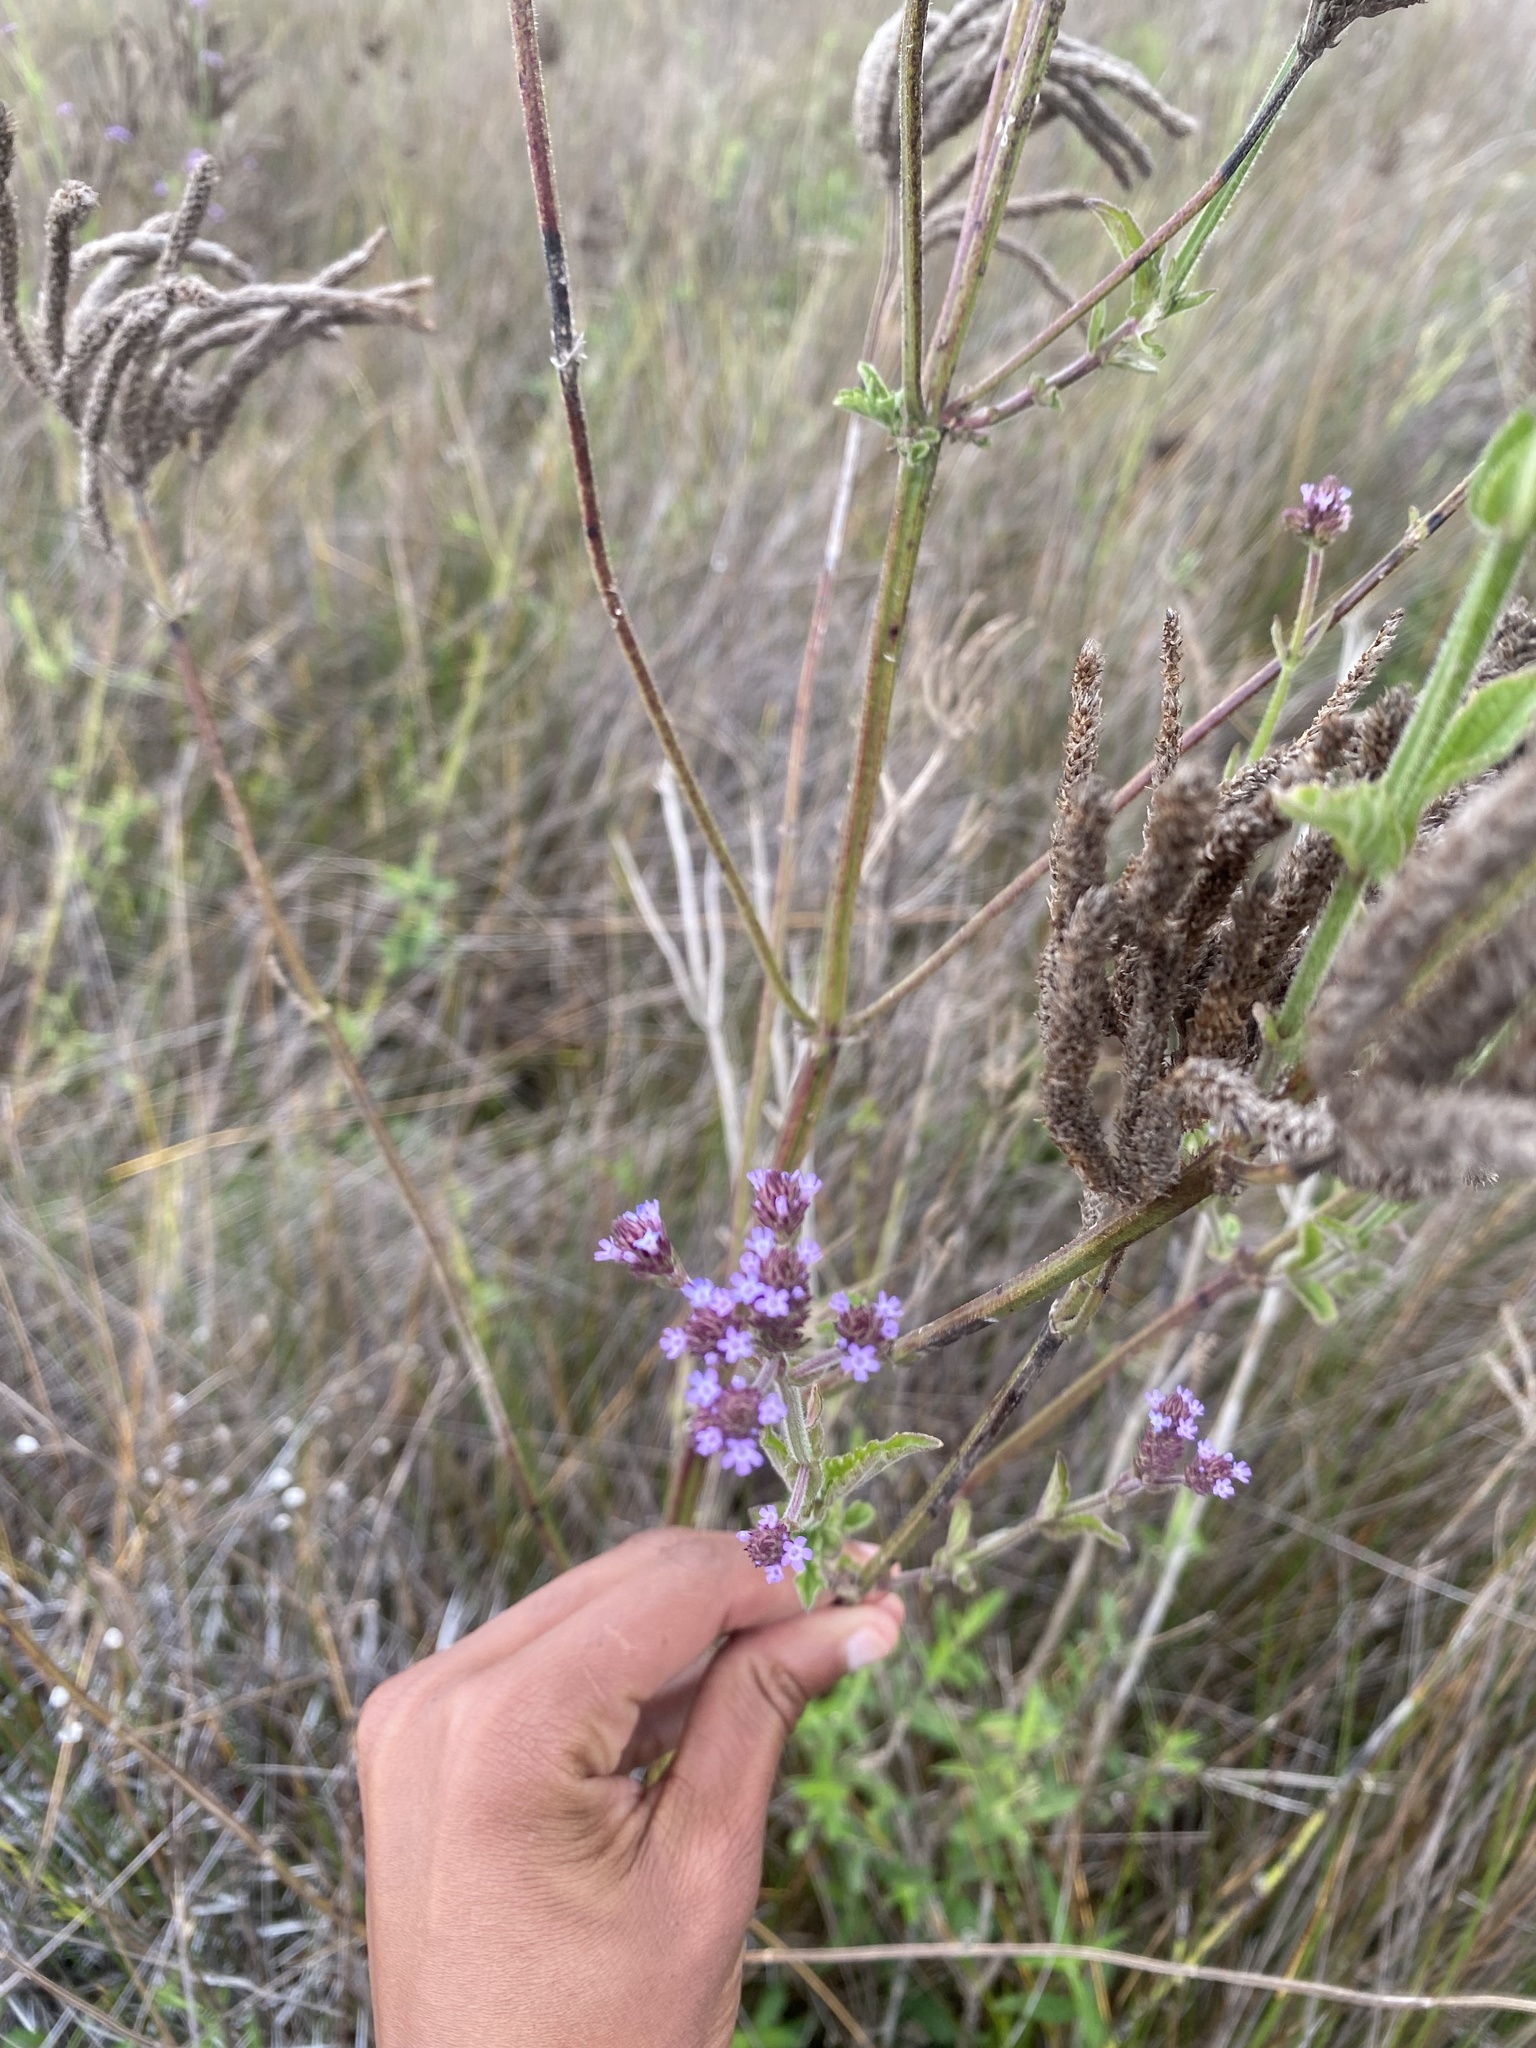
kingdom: Plantae
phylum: Tracheophyta
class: Magnoliopsida
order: Lamiales
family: Verbenaceae
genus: Verbena
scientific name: Verbena incompta
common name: Purpletop vervain
